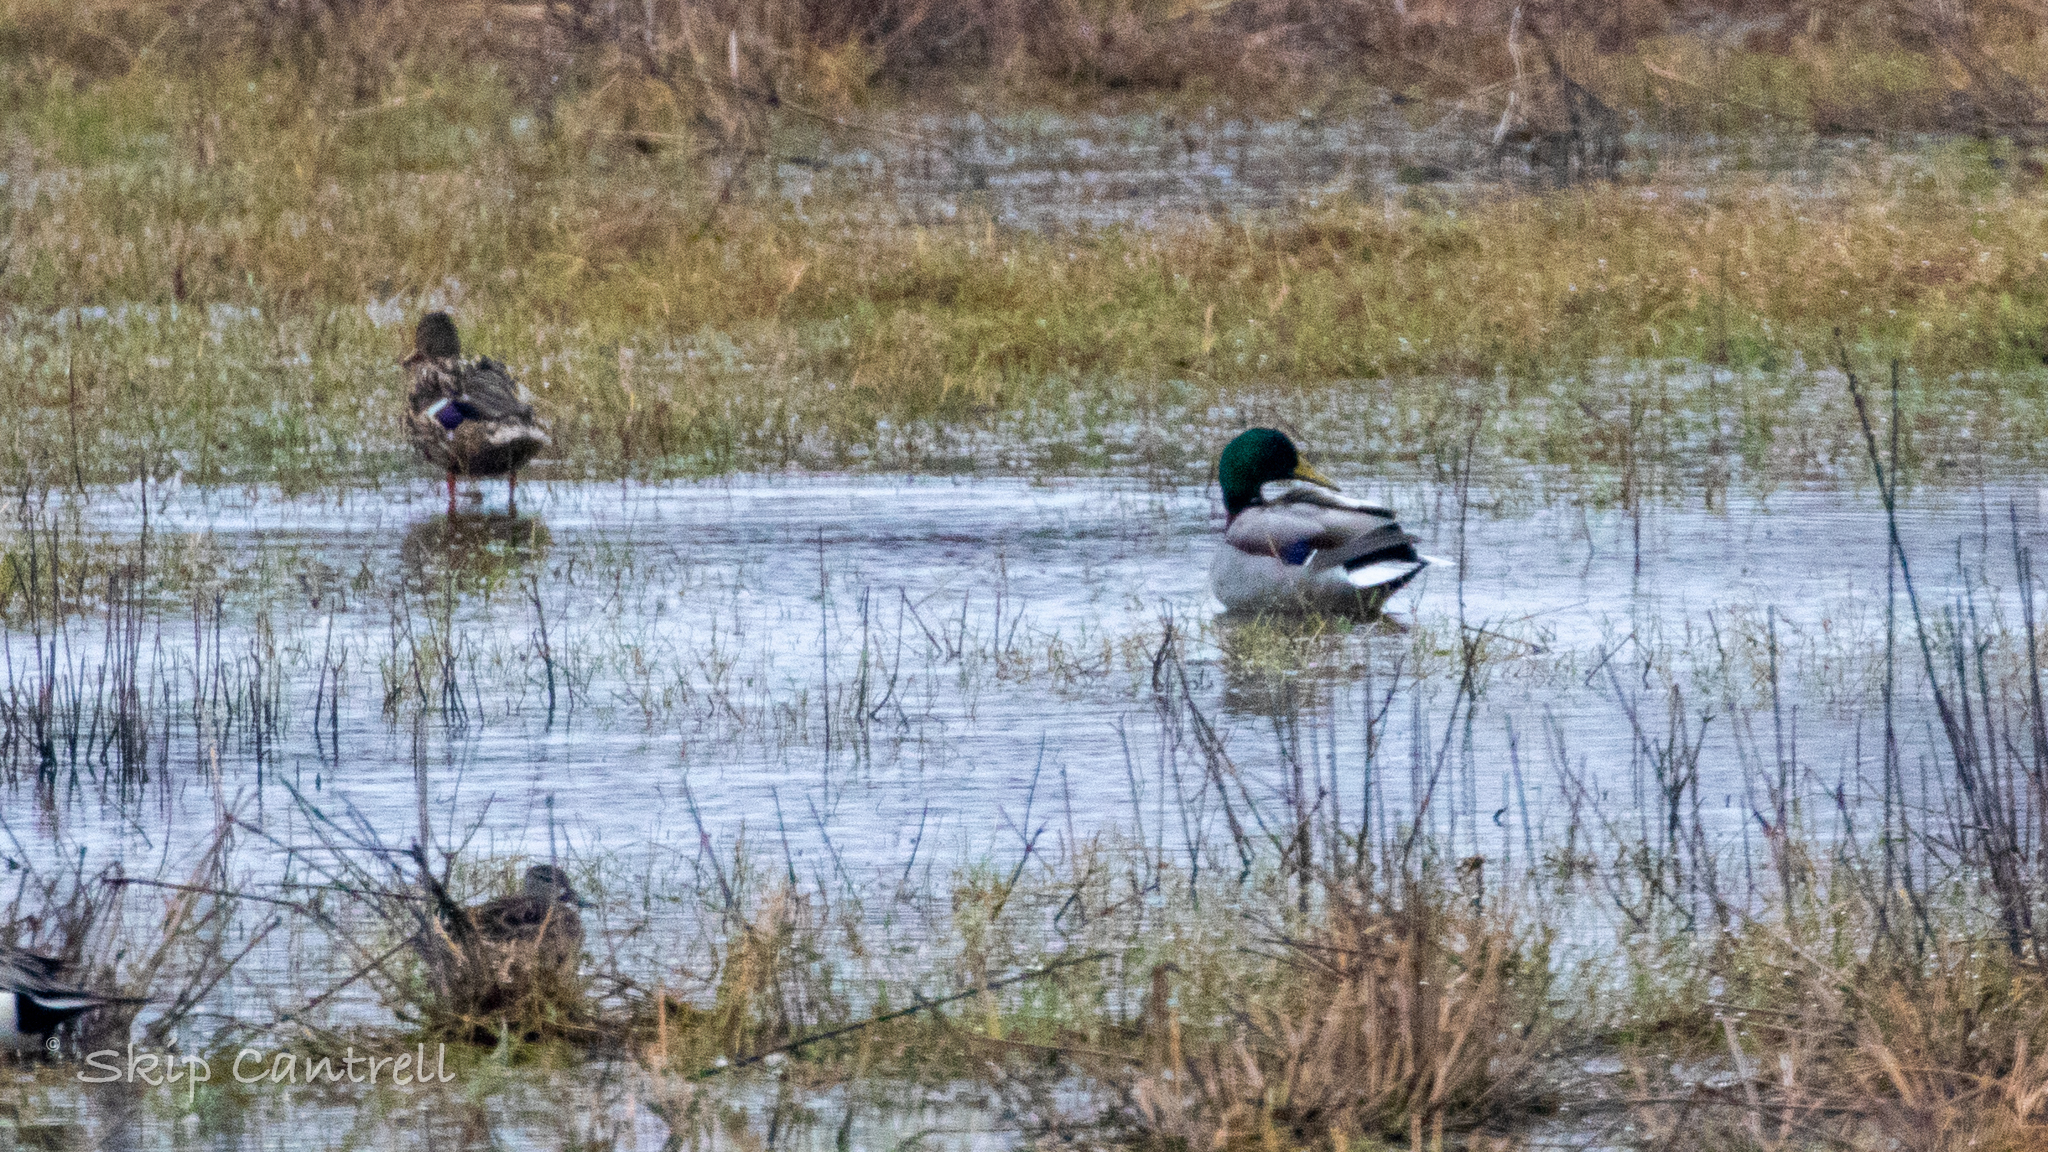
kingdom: Animalia
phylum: Chordata
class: Aves
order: Anseriformes
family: Anatidae
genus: Anas
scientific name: Anas platyrhynchos
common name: Mallard
